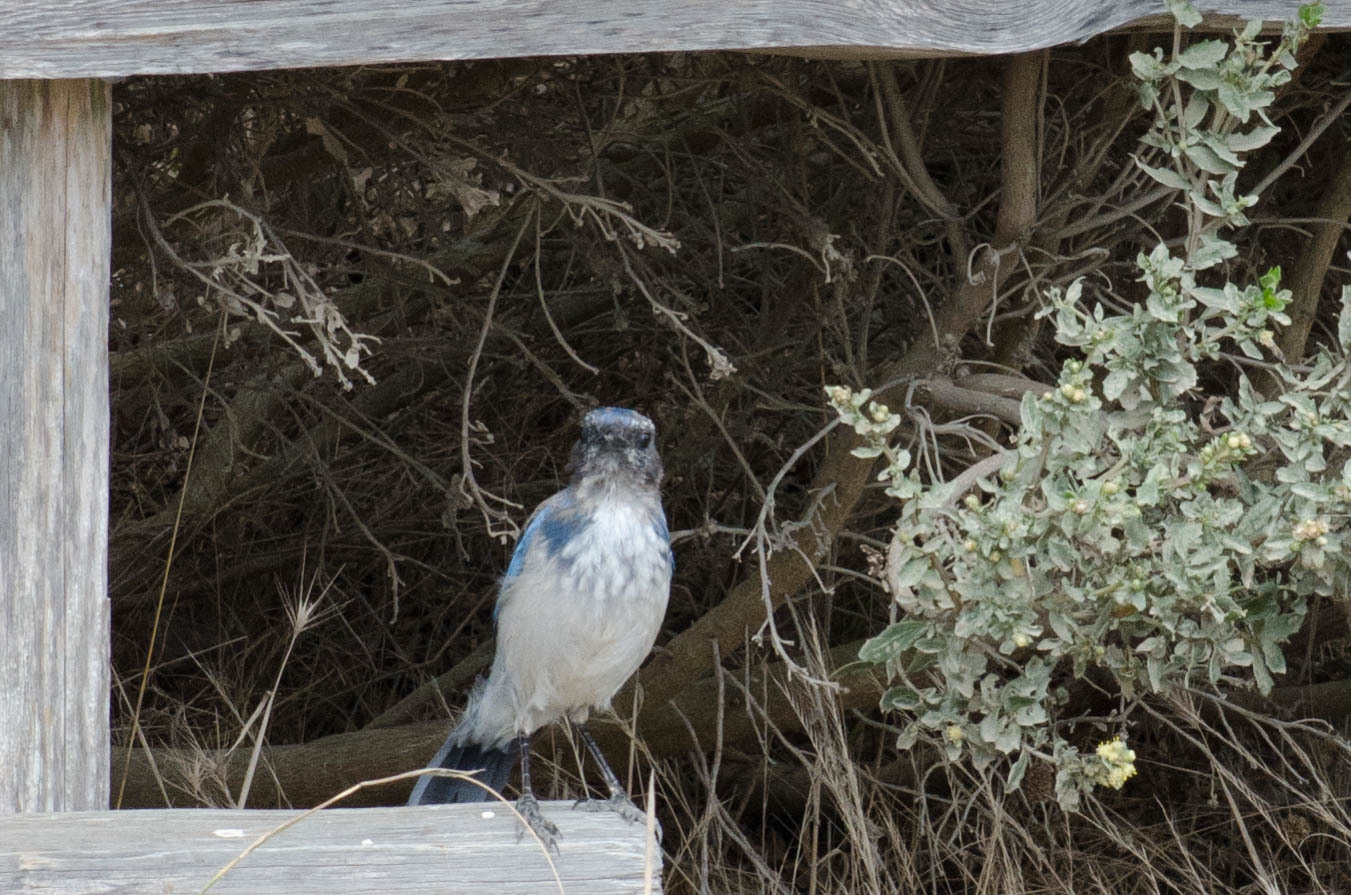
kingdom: Animalia
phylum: Chordata
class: Aves
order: Passeriformes
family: Corvidae
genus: Aphelocoma
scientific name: Aphelocoma californica
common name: California scrub-jay
